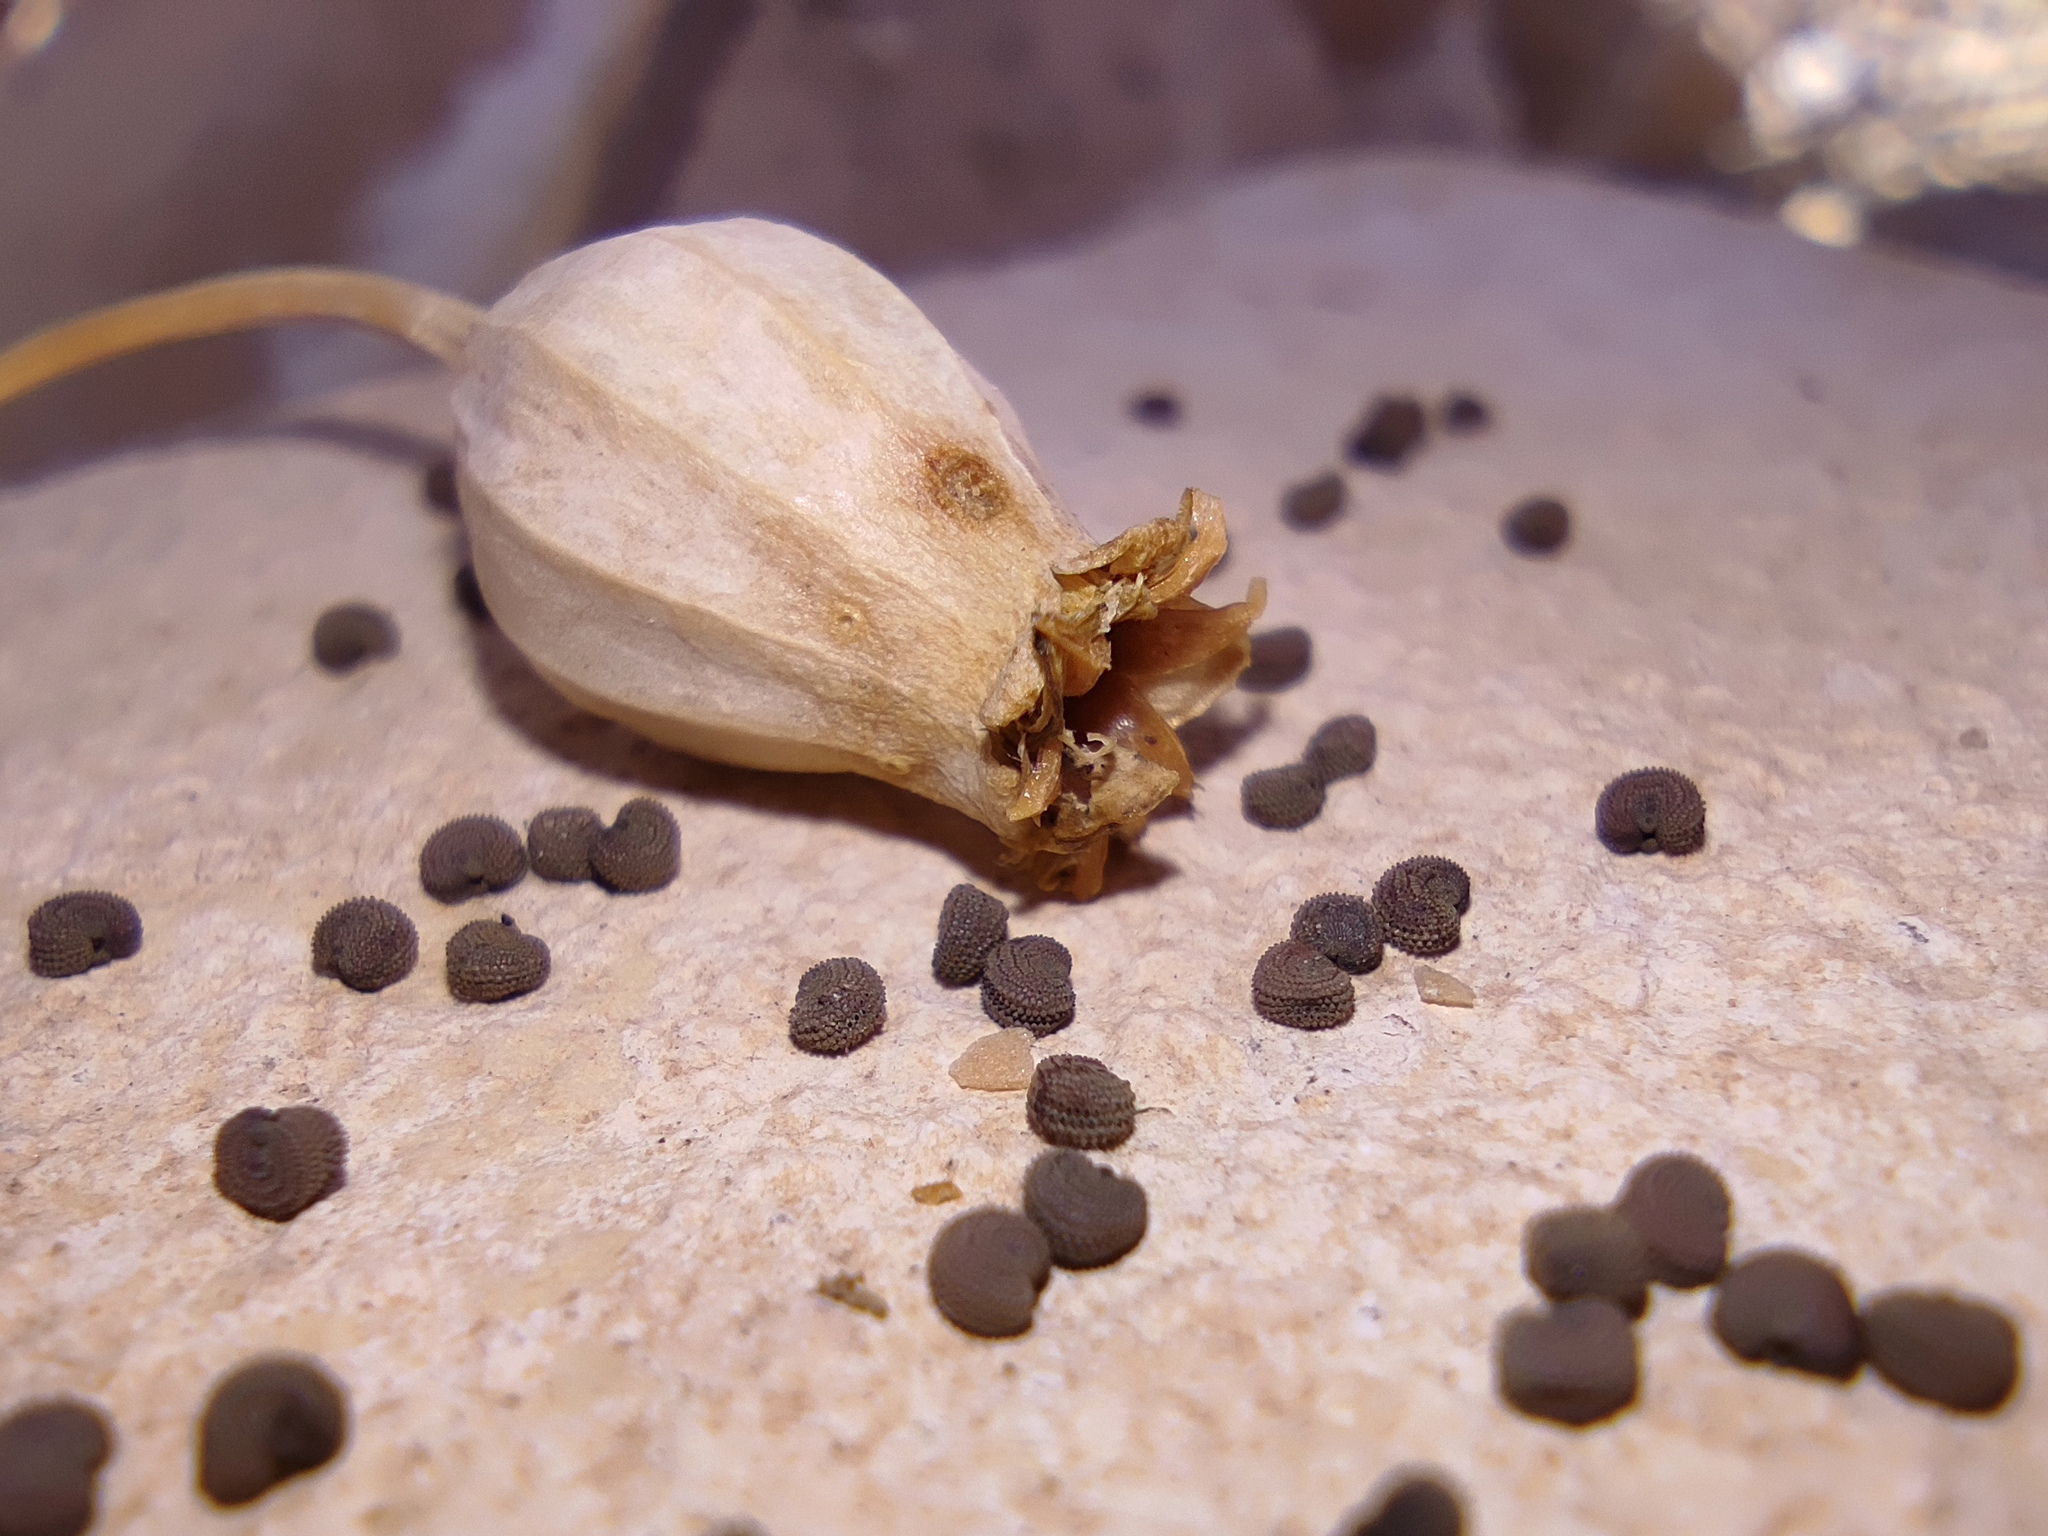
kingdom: Plantae
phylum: Tracheophyta
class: Magnoliopsida
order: Caryophyllales
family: Caryophyllaceae
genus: Silene
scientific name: Silene csereii
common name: Balkan catchfly
